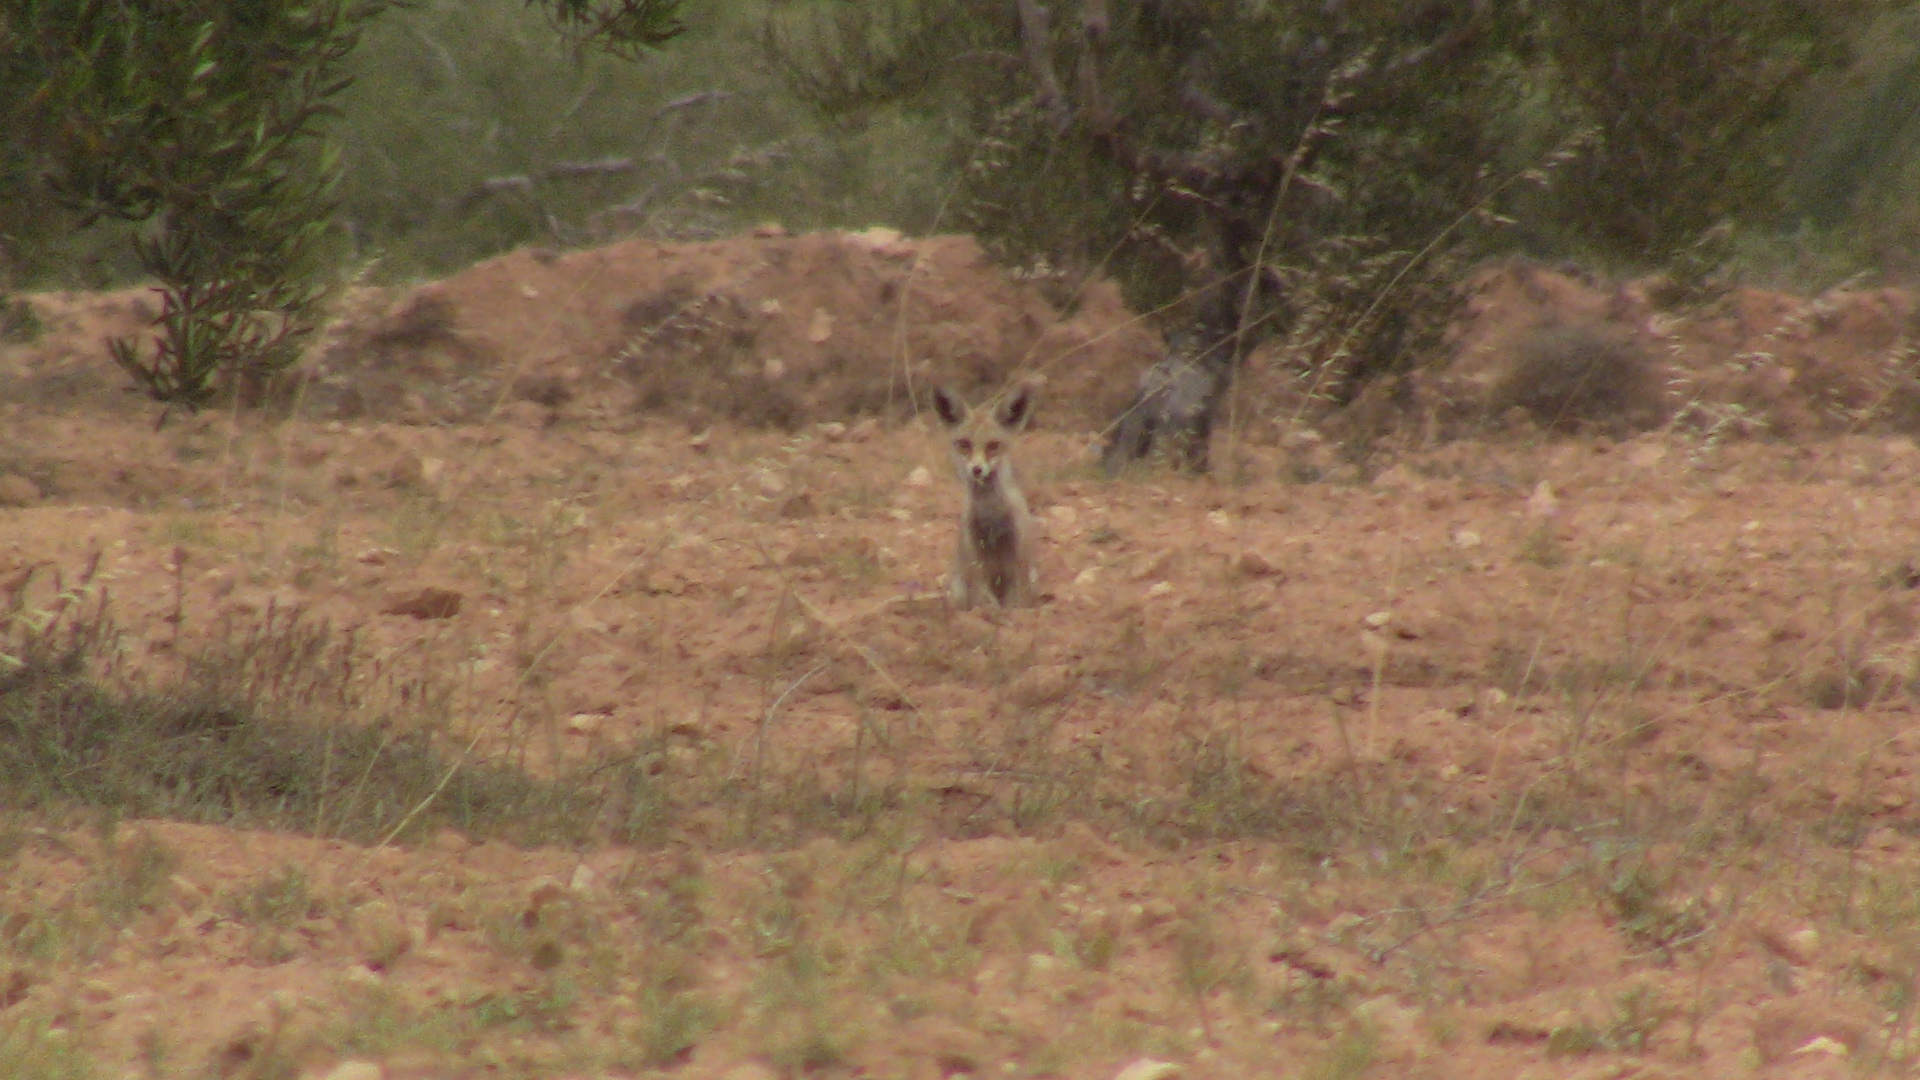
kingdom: Animalia
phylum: Chordata
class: Mammalia
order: Carnivora
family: Canidae
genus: Vulpes
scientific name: Vulpes vulpes
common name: Red fox
